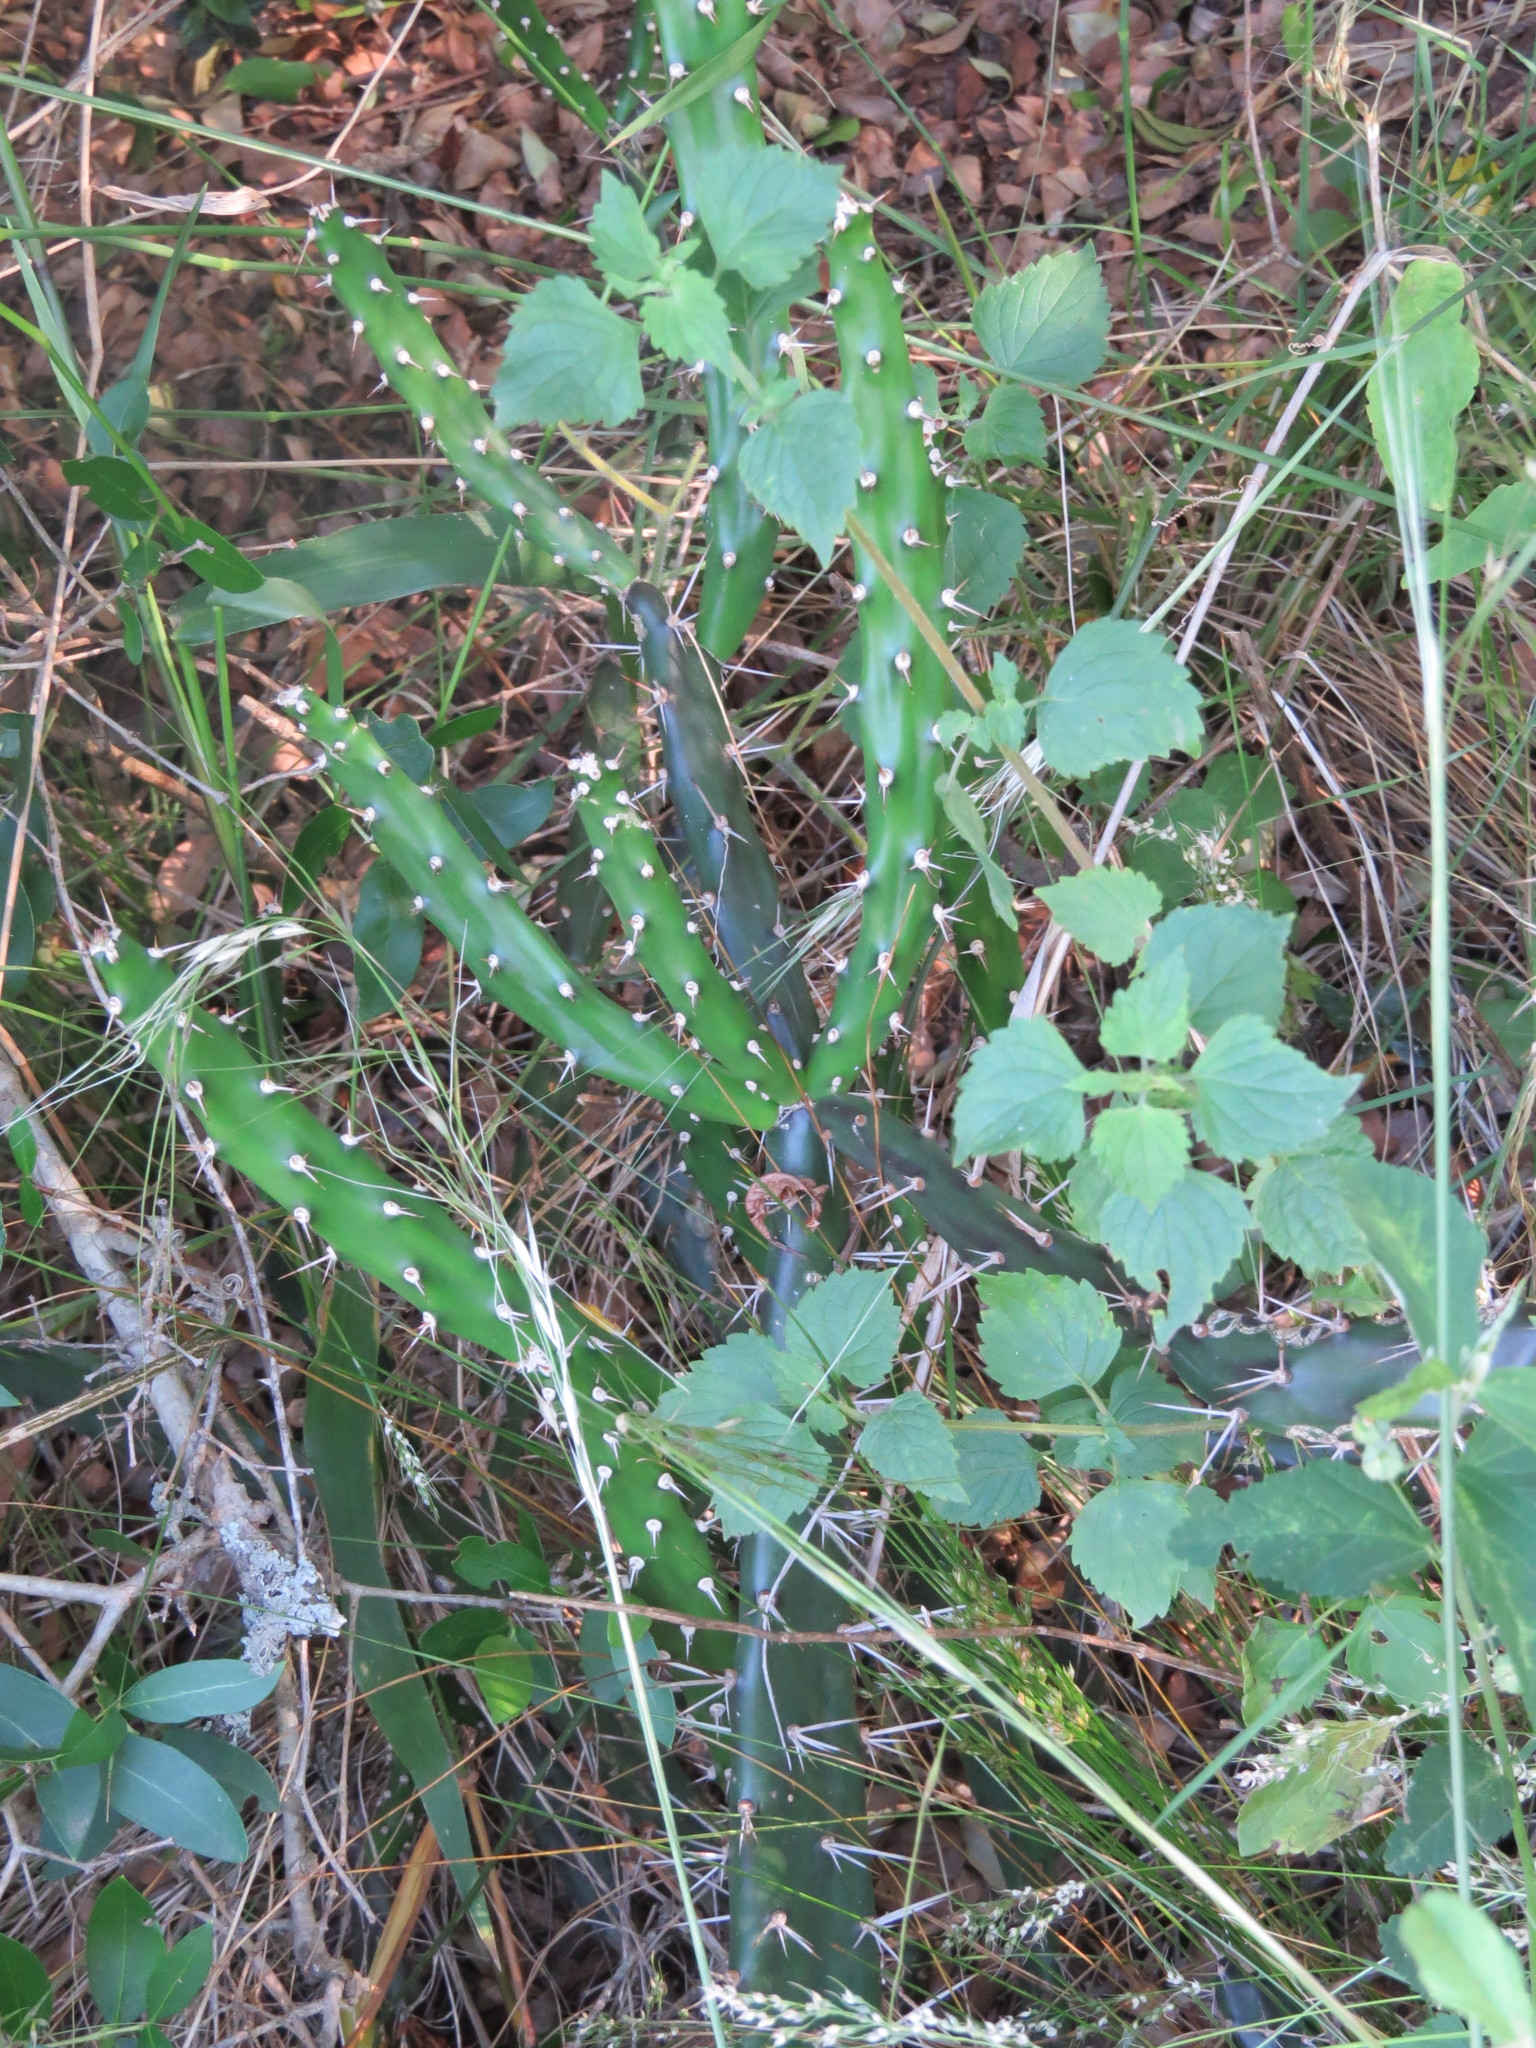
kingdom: Plantae
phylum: Tracheophyta
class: Magnoliopsida
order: Caryophyllales
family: Cactaceae
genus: Opuntia
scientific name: Opuntia aurantiaca
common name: Jointed pricklypear
